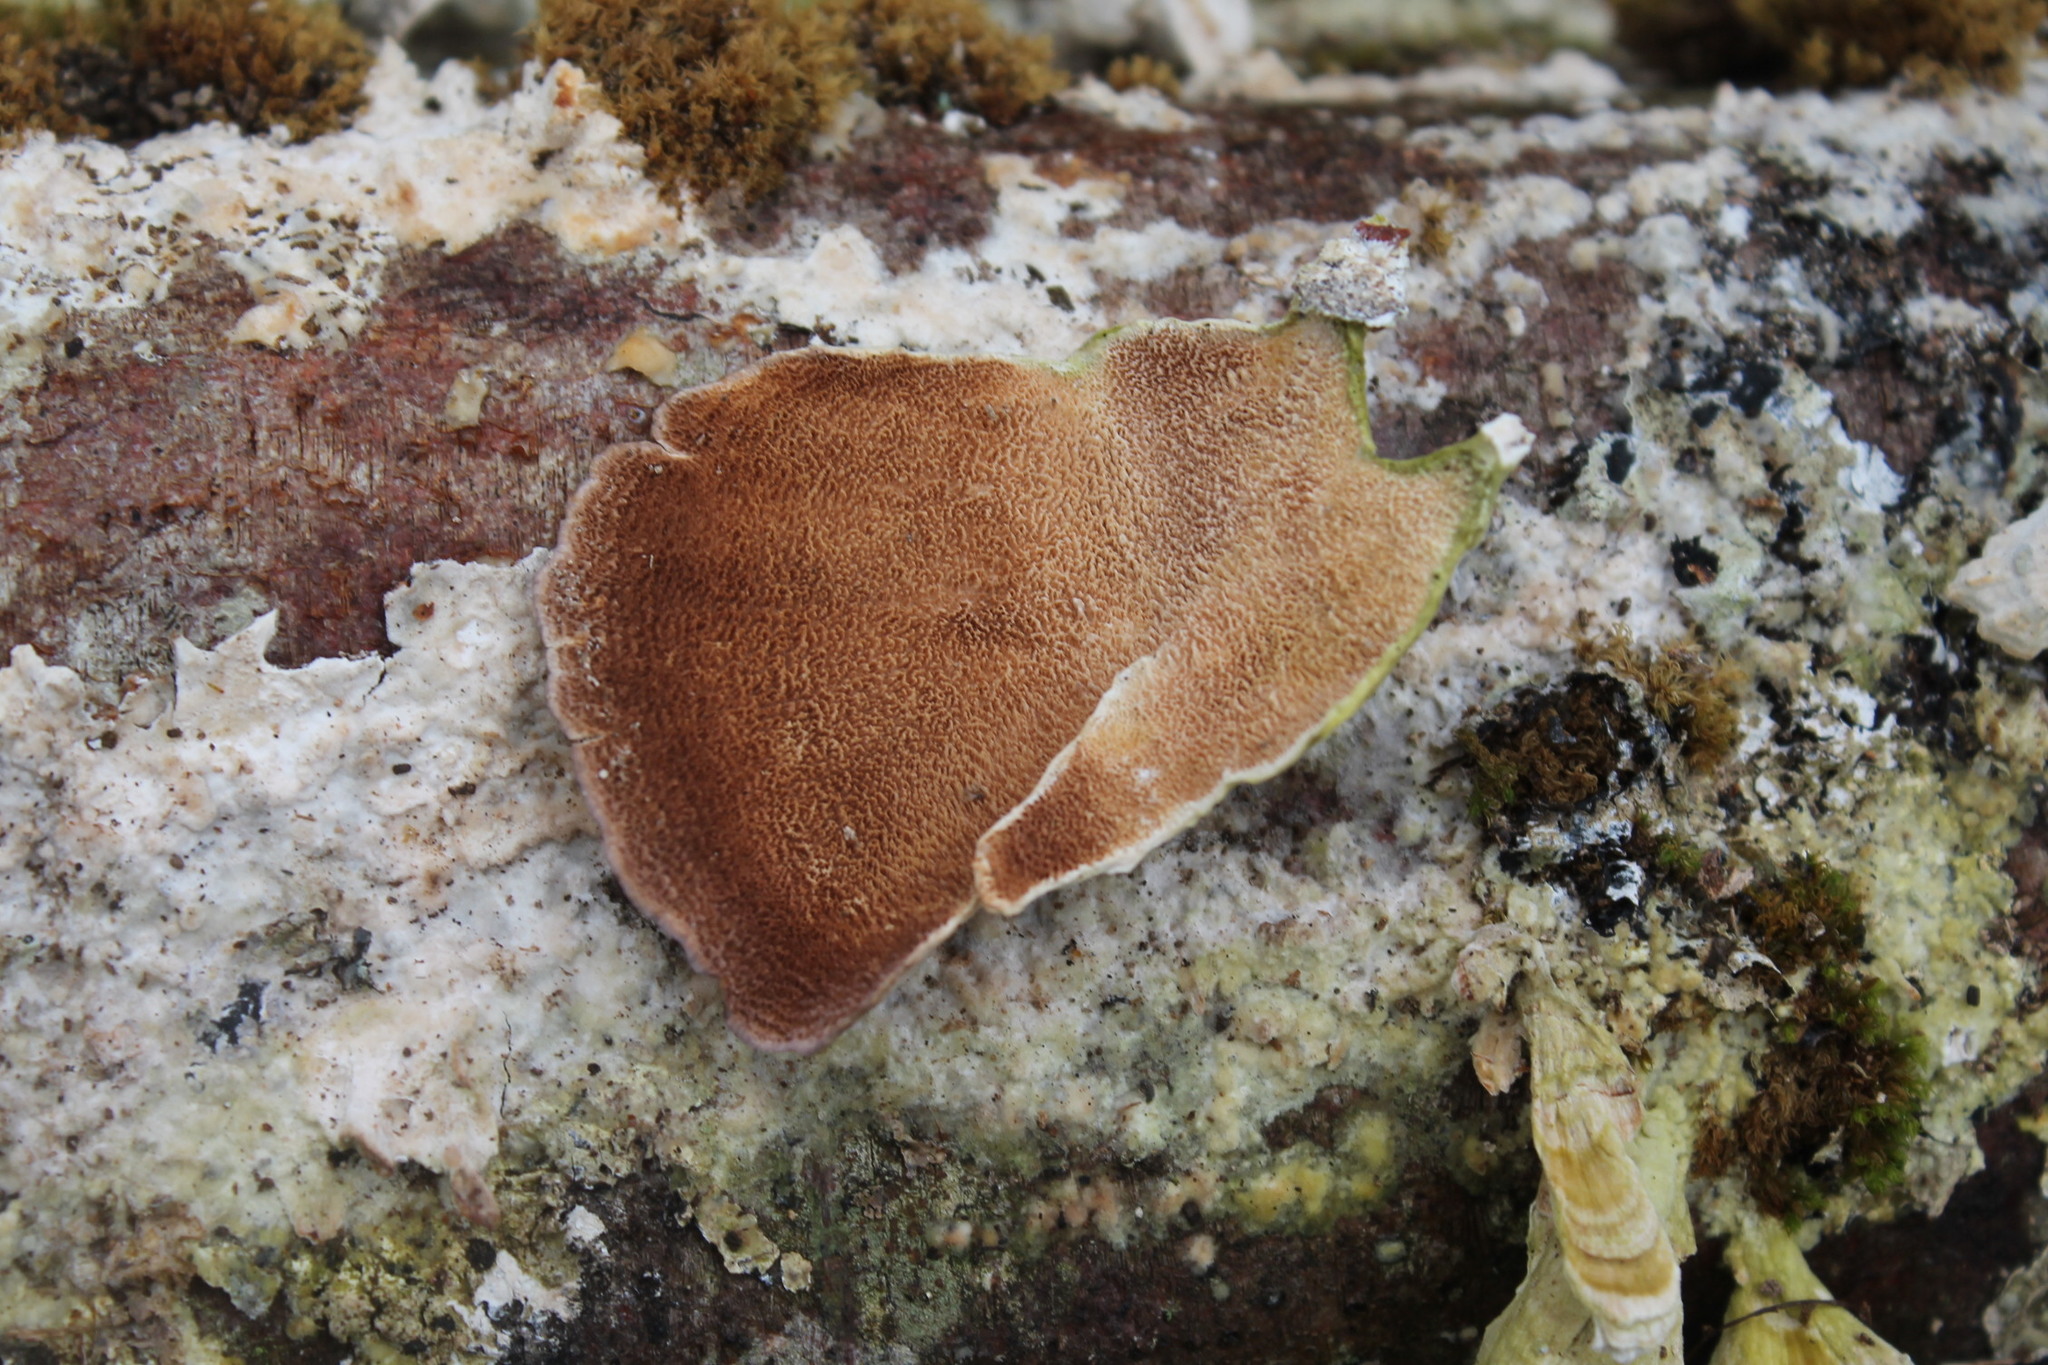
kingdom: Fungi
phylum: Basidiomycota
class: Agaricomycetes
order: Hymenochaetales
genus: Trichaptum
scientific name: Trichaptum biforme
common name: Violet-toothed polypore
